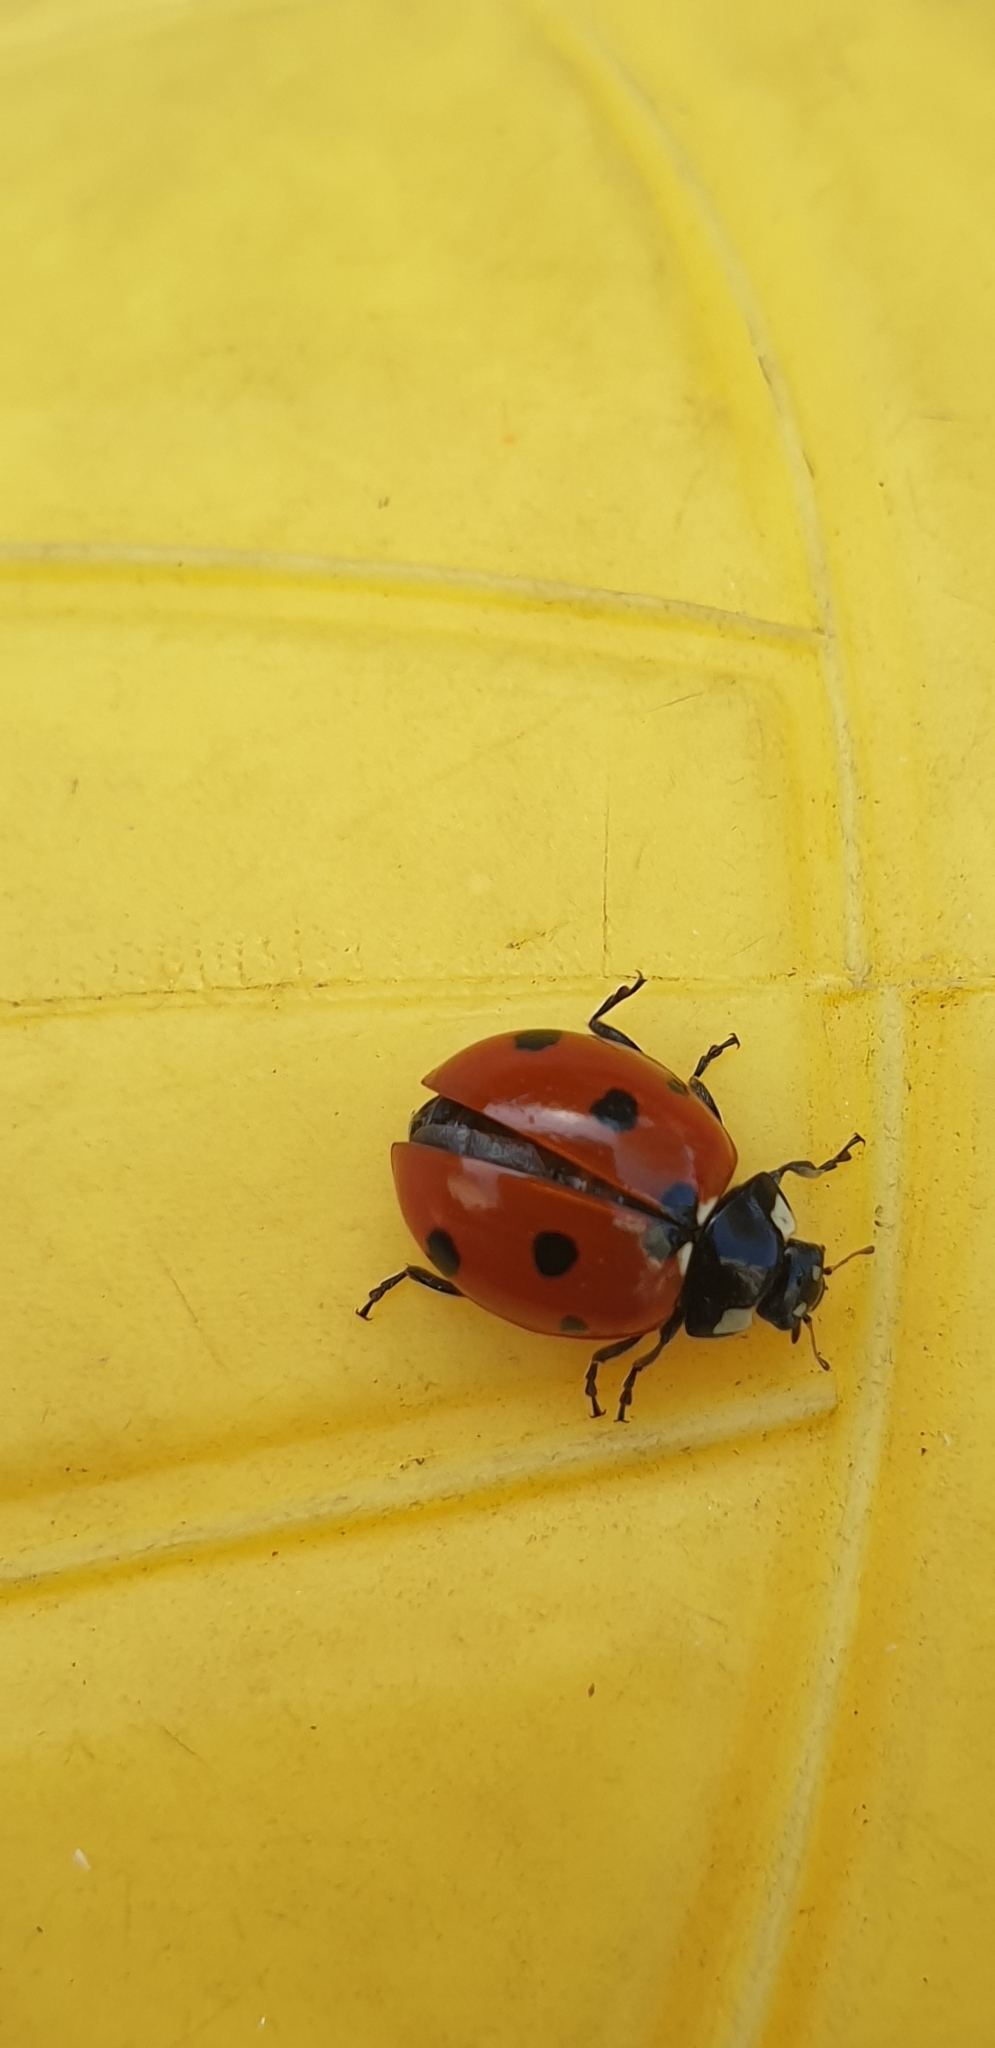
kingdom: Animalia
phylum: Arthropoda
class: Insecta
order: Coleoptera
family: Coccinellidae
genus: Coccinella
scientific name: Coccinella septempunctata
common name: Sevenspotted lady beetle
